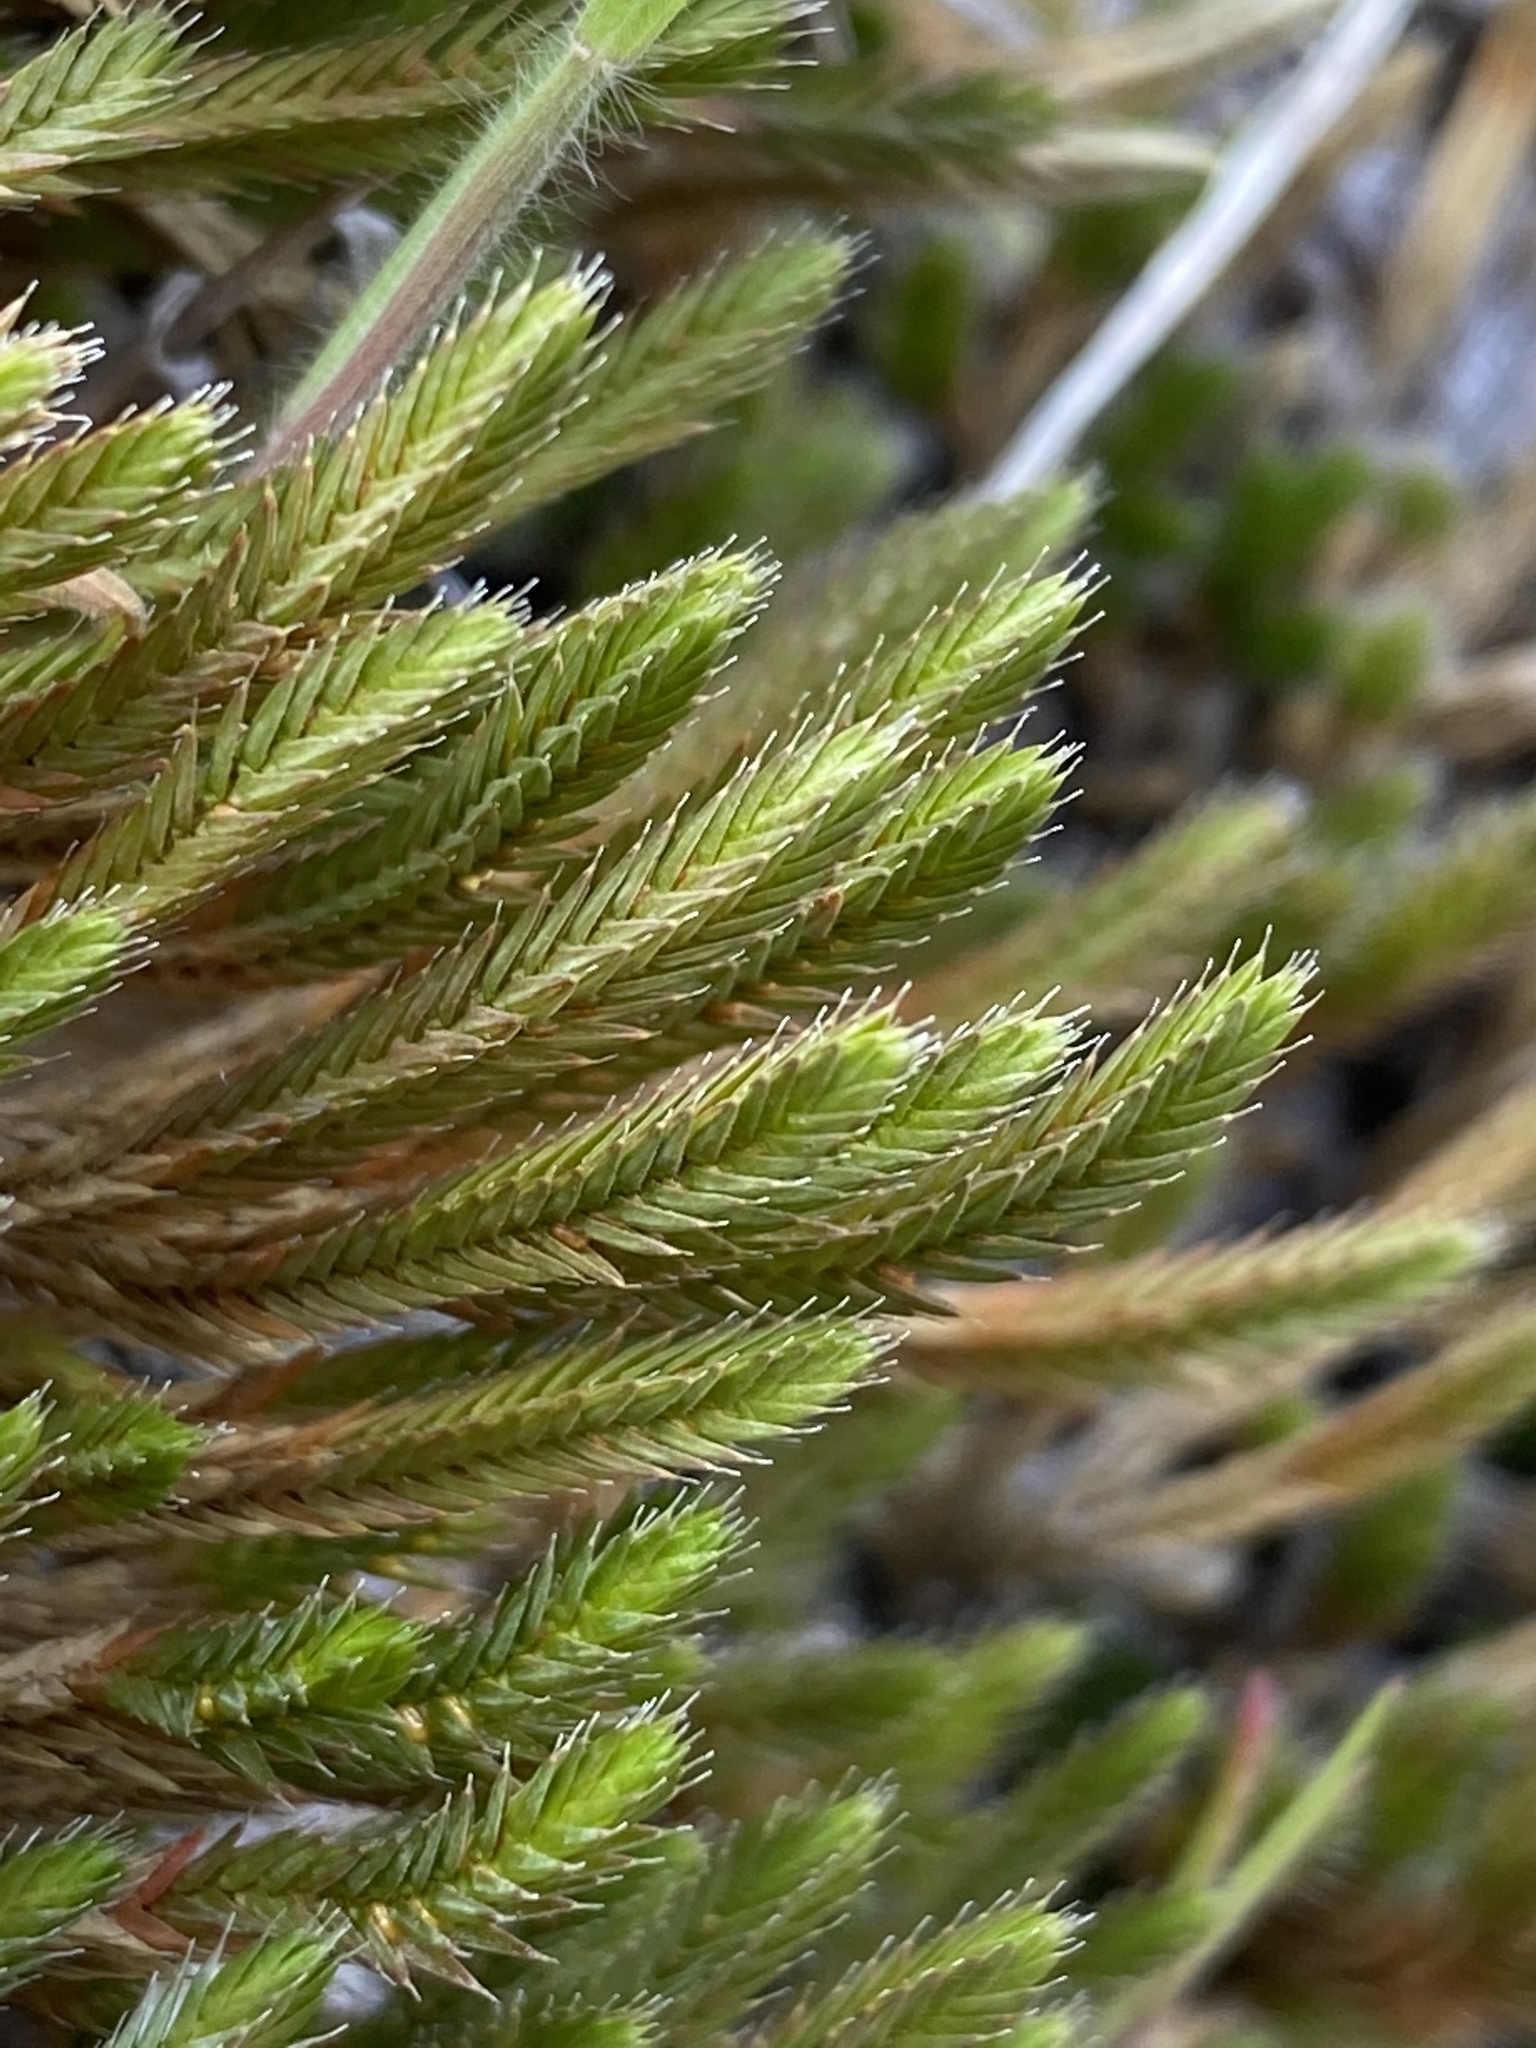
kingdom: Plantae
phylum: Tracheophyta
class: Lycopodiopsida
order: Selaginellales
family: Selaginellaceae
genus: Selaginella
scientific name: Selaginella wallacei
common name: Wallace's selaginella
